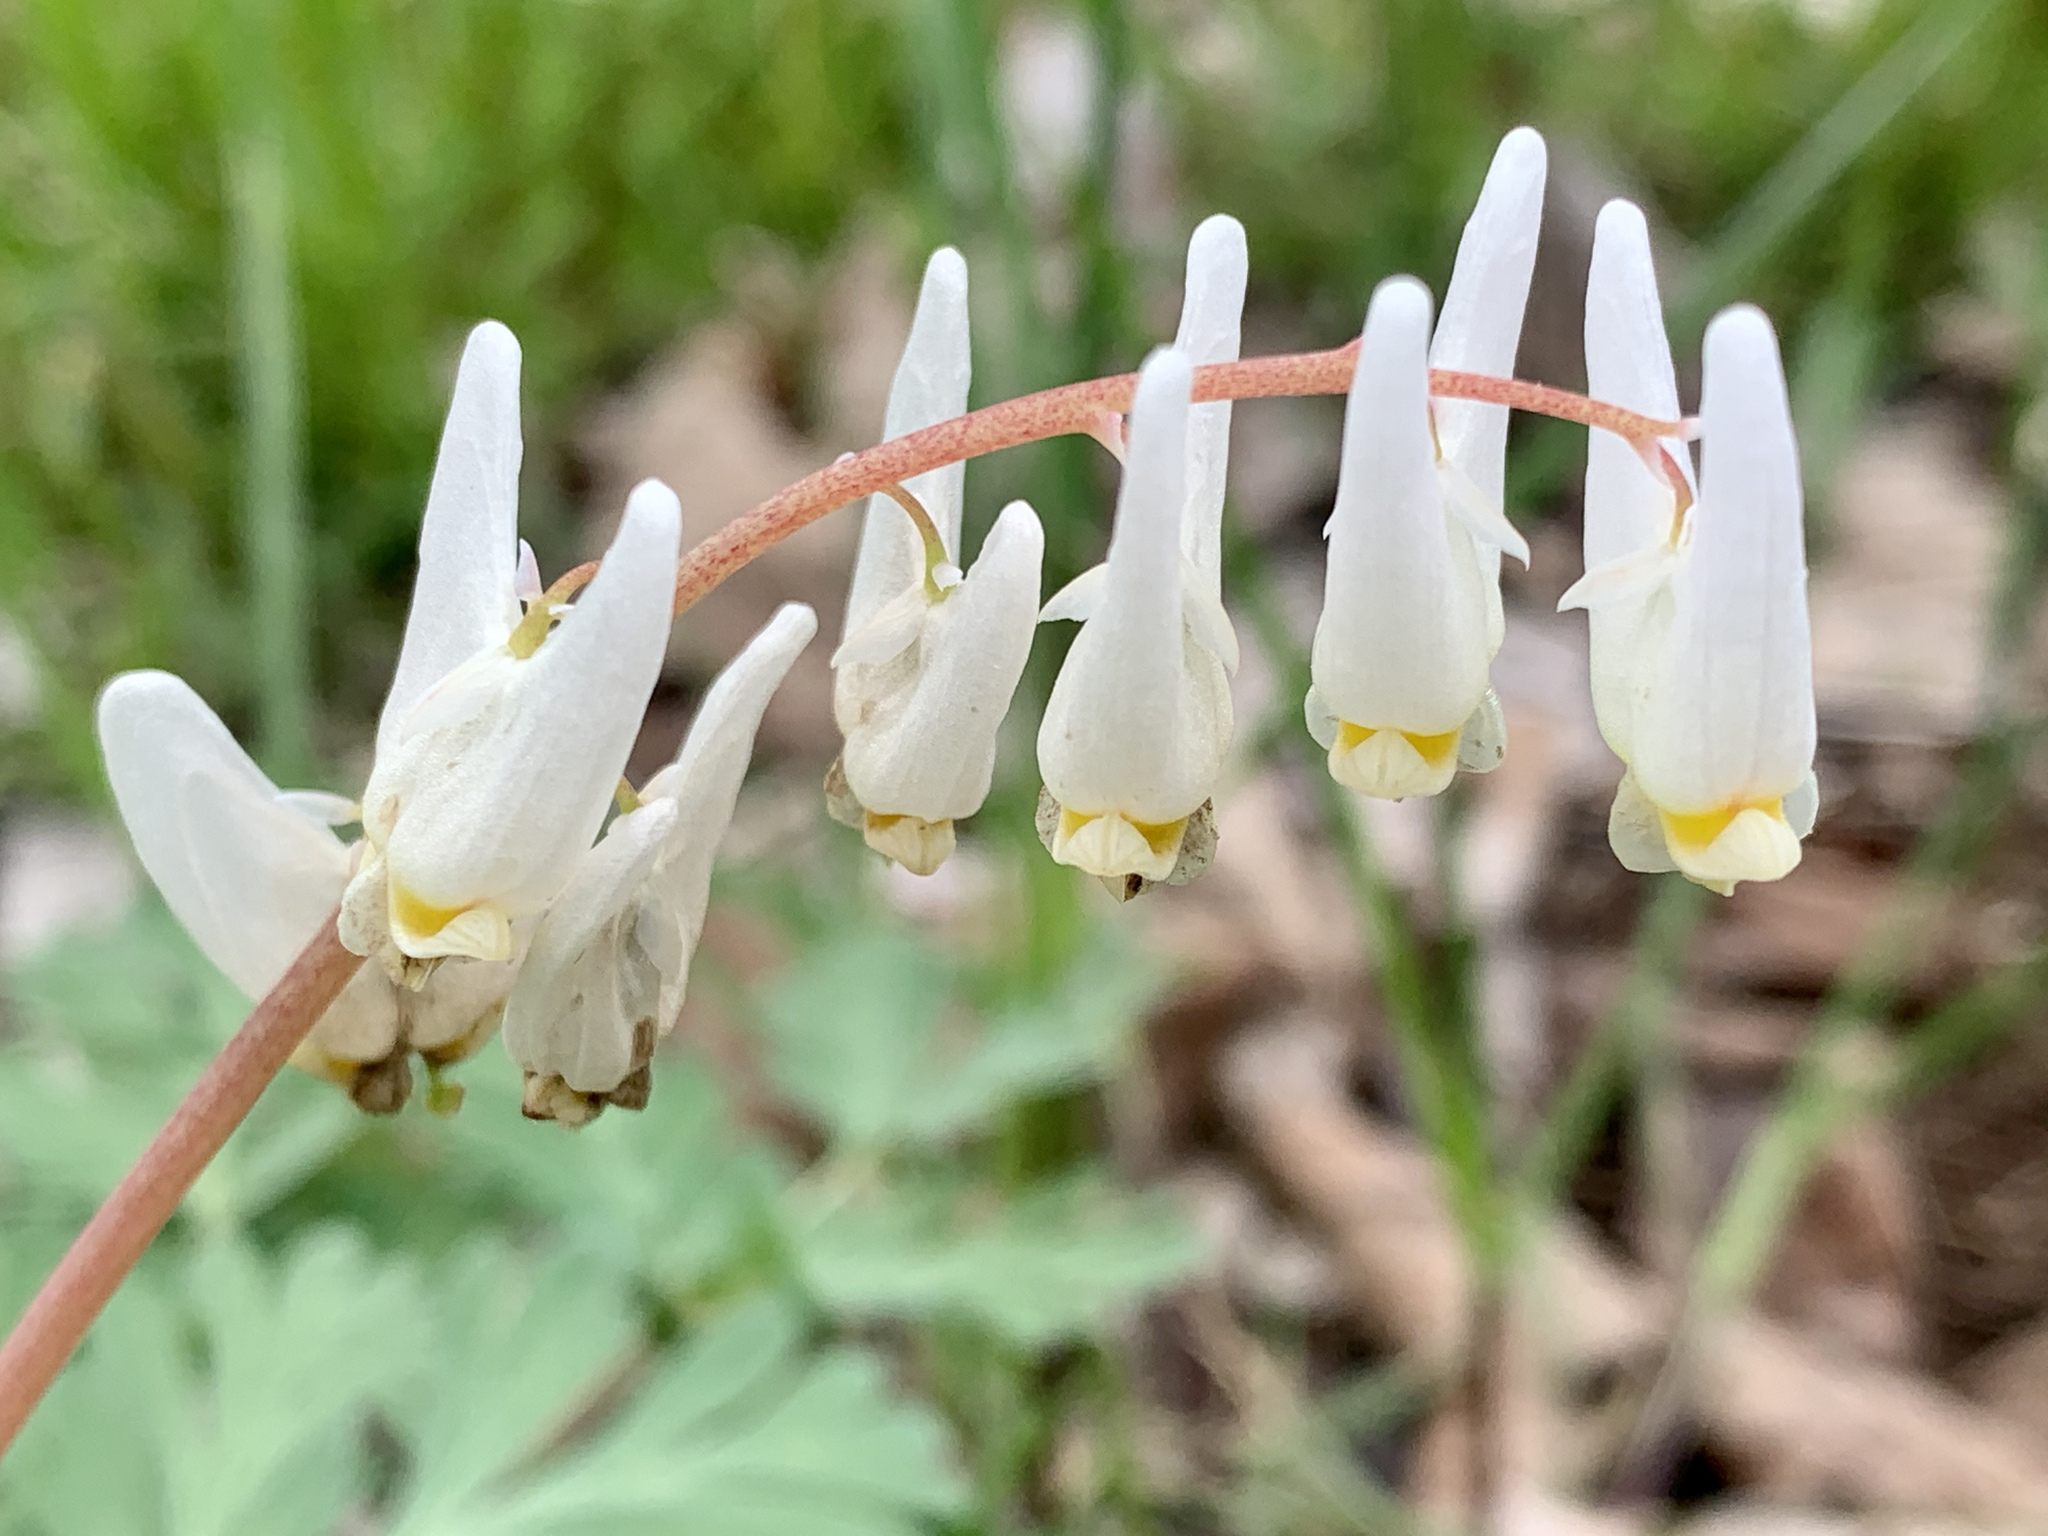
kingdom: Plantae
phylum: Tracheophyta
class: Magnoliopsida
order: Ranunculales
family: Papaveraceae
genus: Dicentra
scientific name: Dicentra cucullaria
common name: Dutchman's breeches
